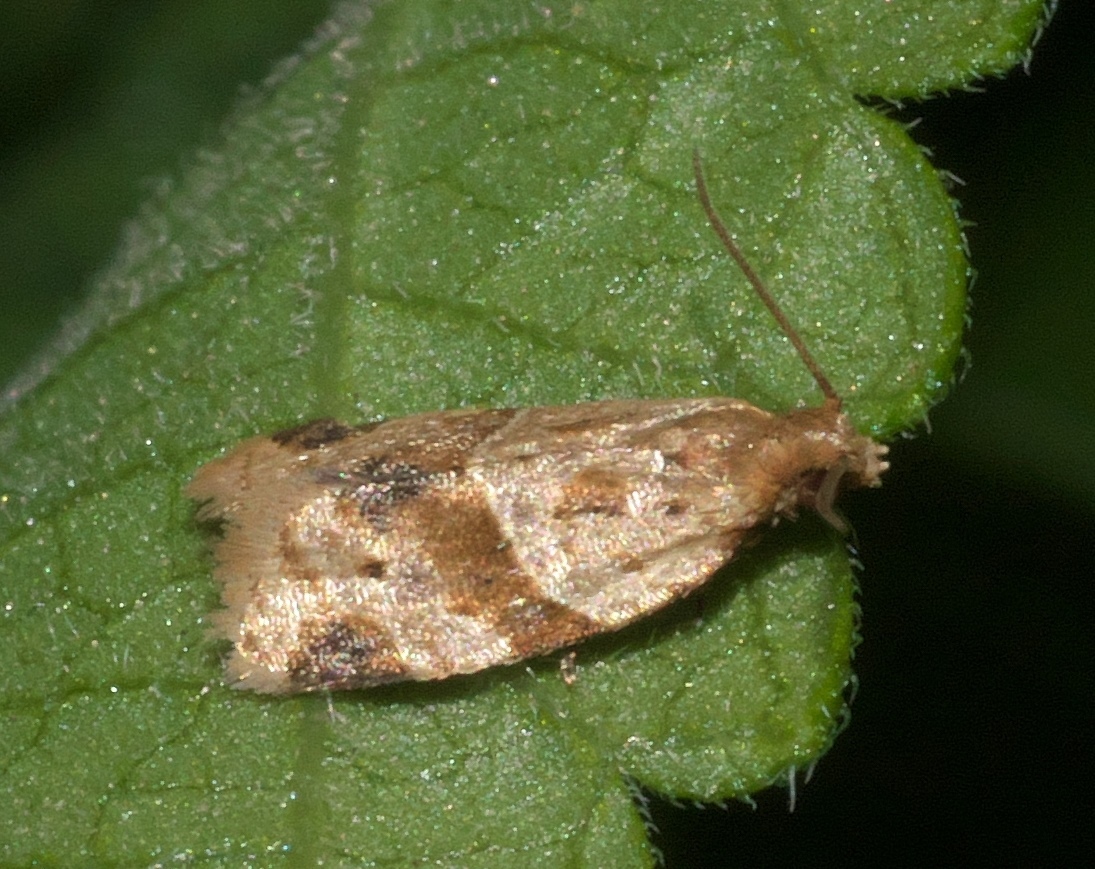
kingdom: Animalia
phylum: Arthropoda
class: Insecta
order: Lepidoptera
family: Tortricidae
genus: Clepsis
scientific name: Clepsis peritana
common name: Garden tortrix
